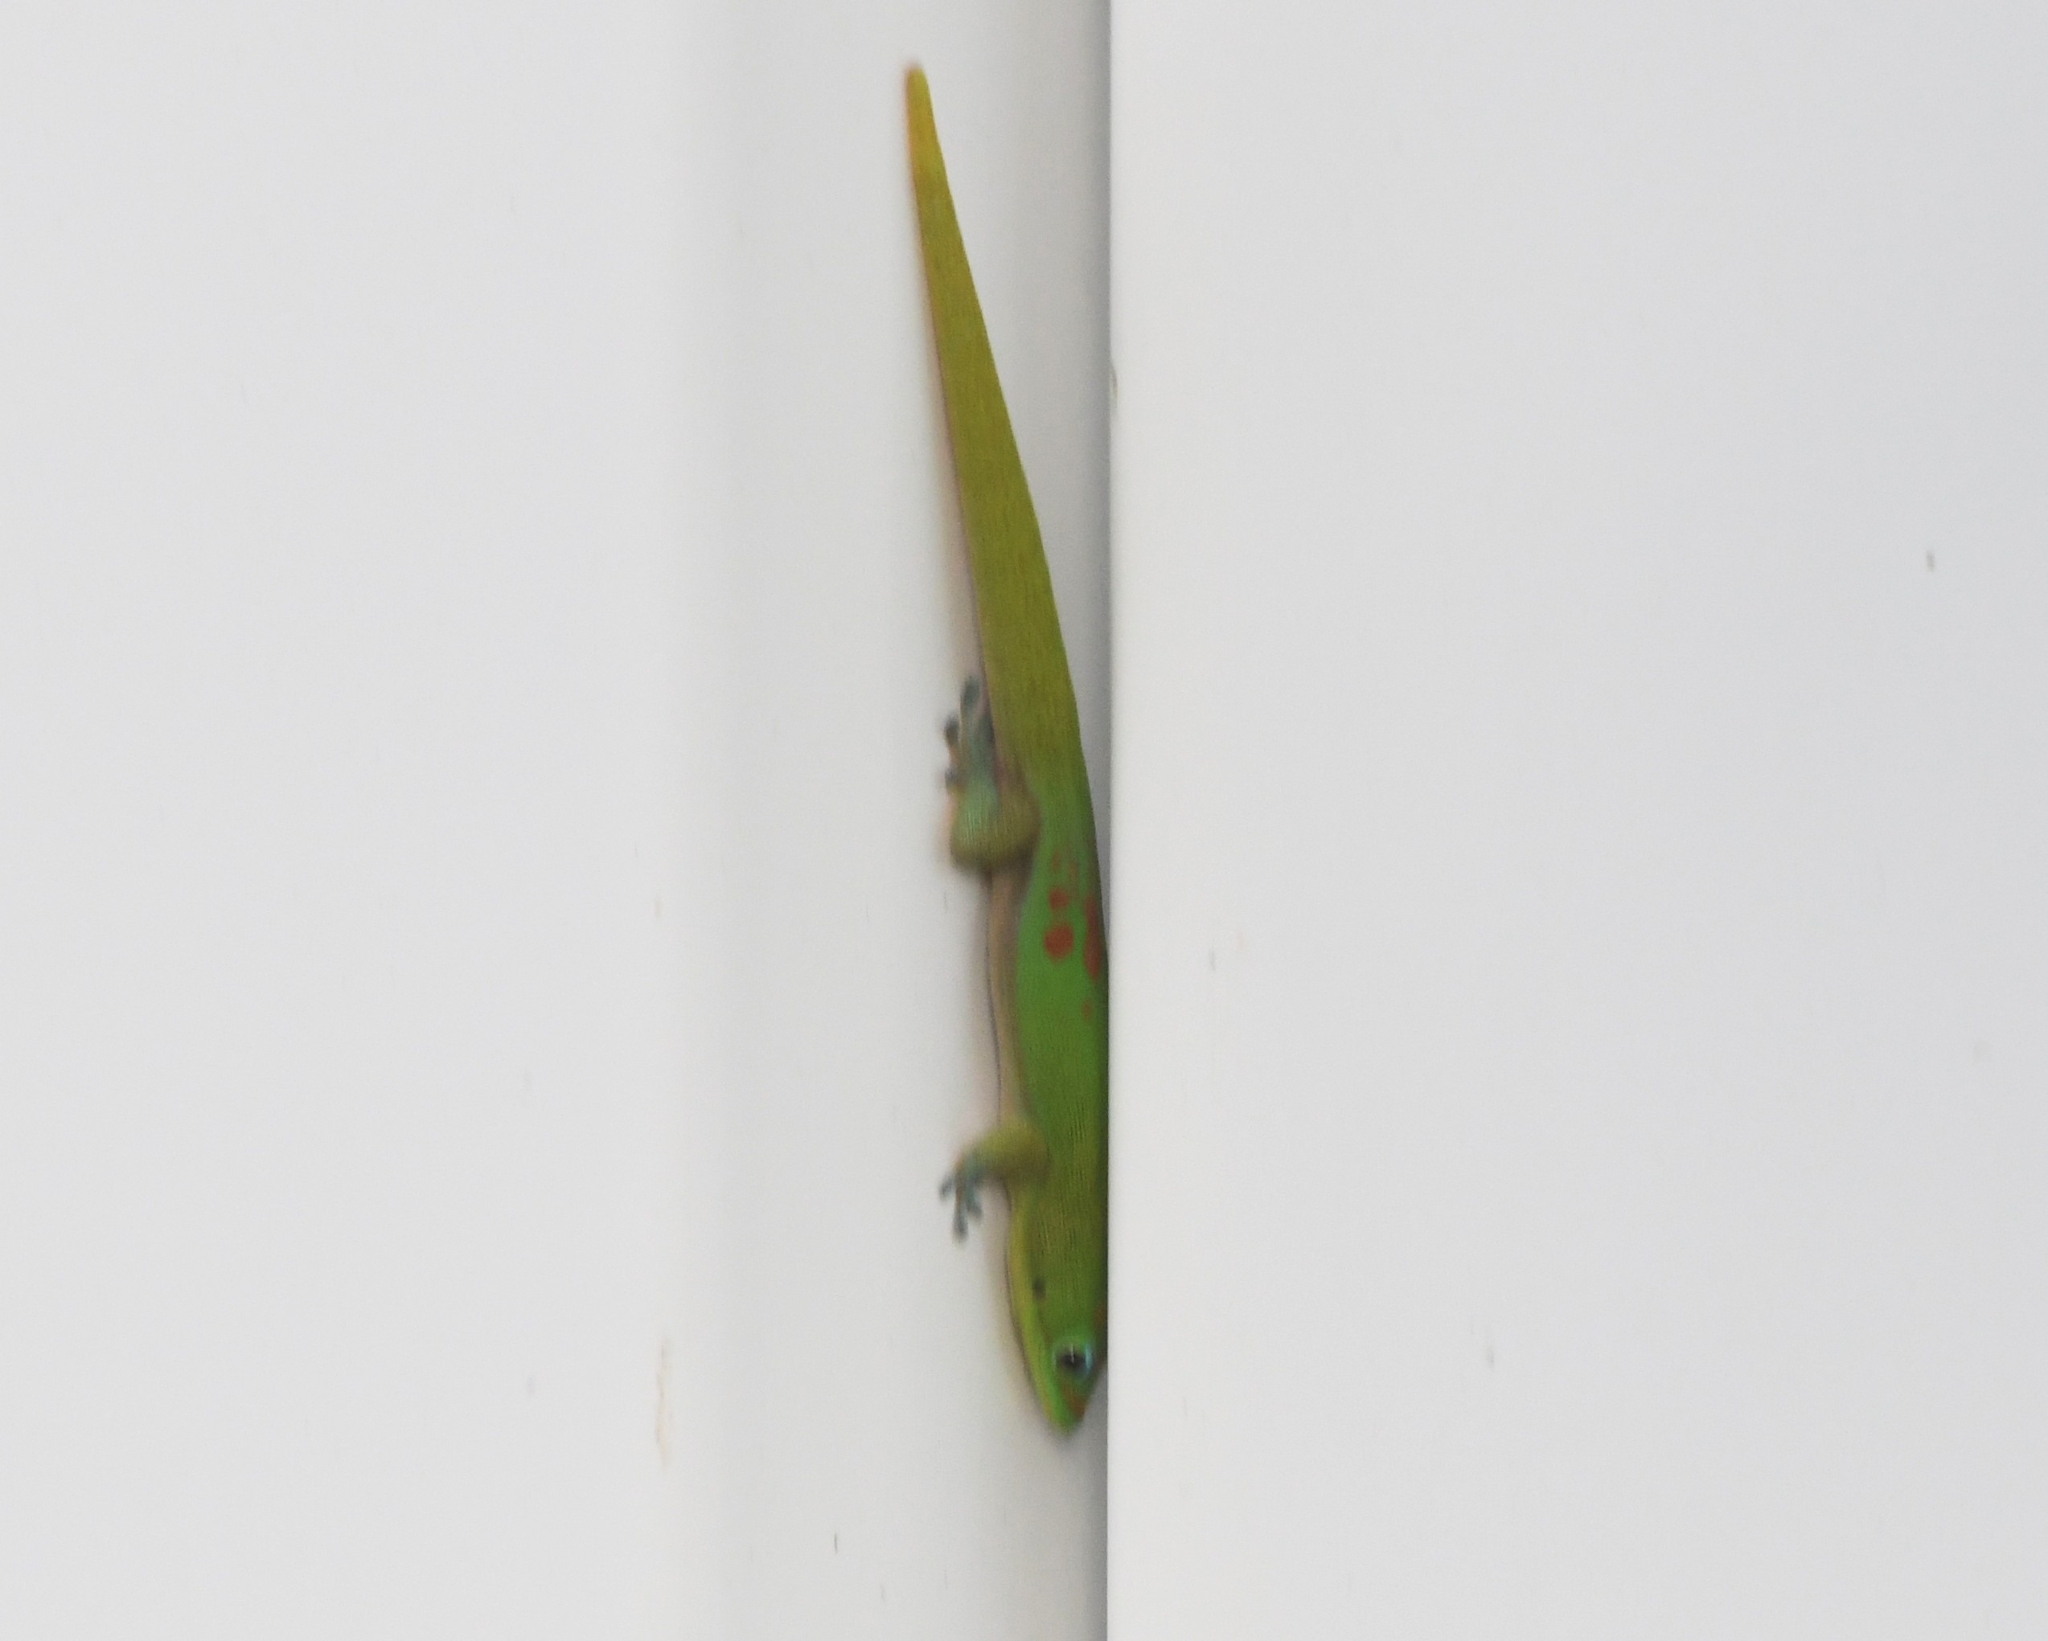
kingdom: Animalia
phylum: Chordata
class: Squamata
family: Gekkonidae
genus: Phelsuma
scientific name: Phelsuma laticauda
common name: Gold dust day gecko
